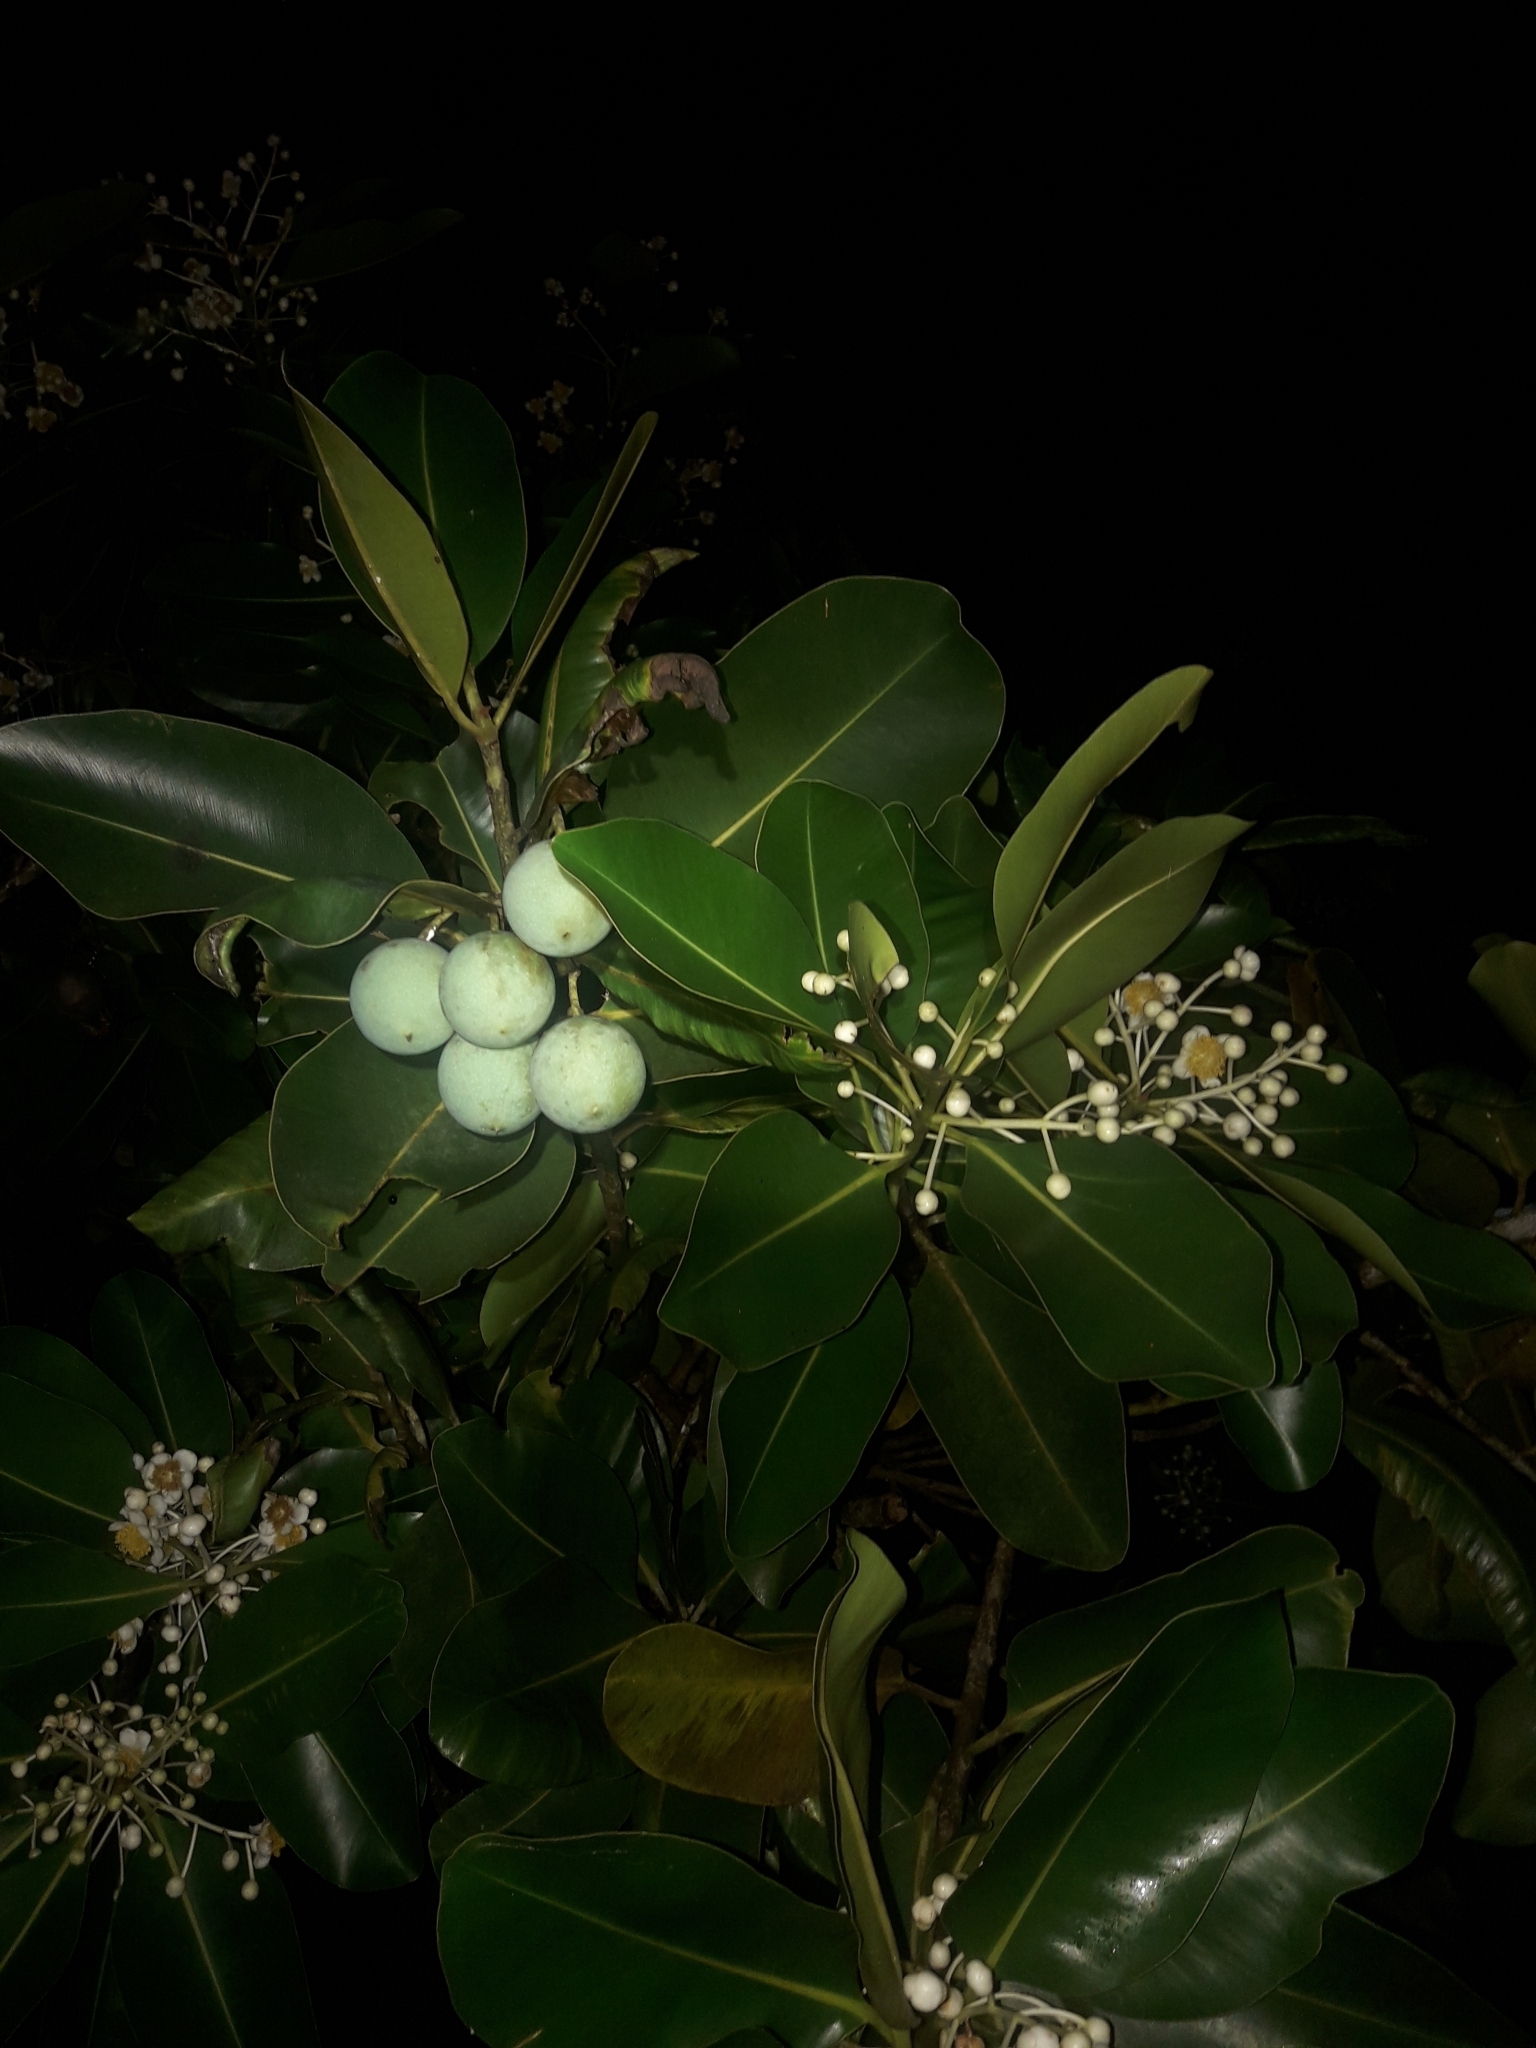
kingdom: Plantae
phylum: Tracheophyta
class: Magnoliopsida
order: Malpighiales
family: Calophyllaceae
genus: Calophyllum
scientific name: Calophyllum inophyllum
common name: Alexandrian laurel
